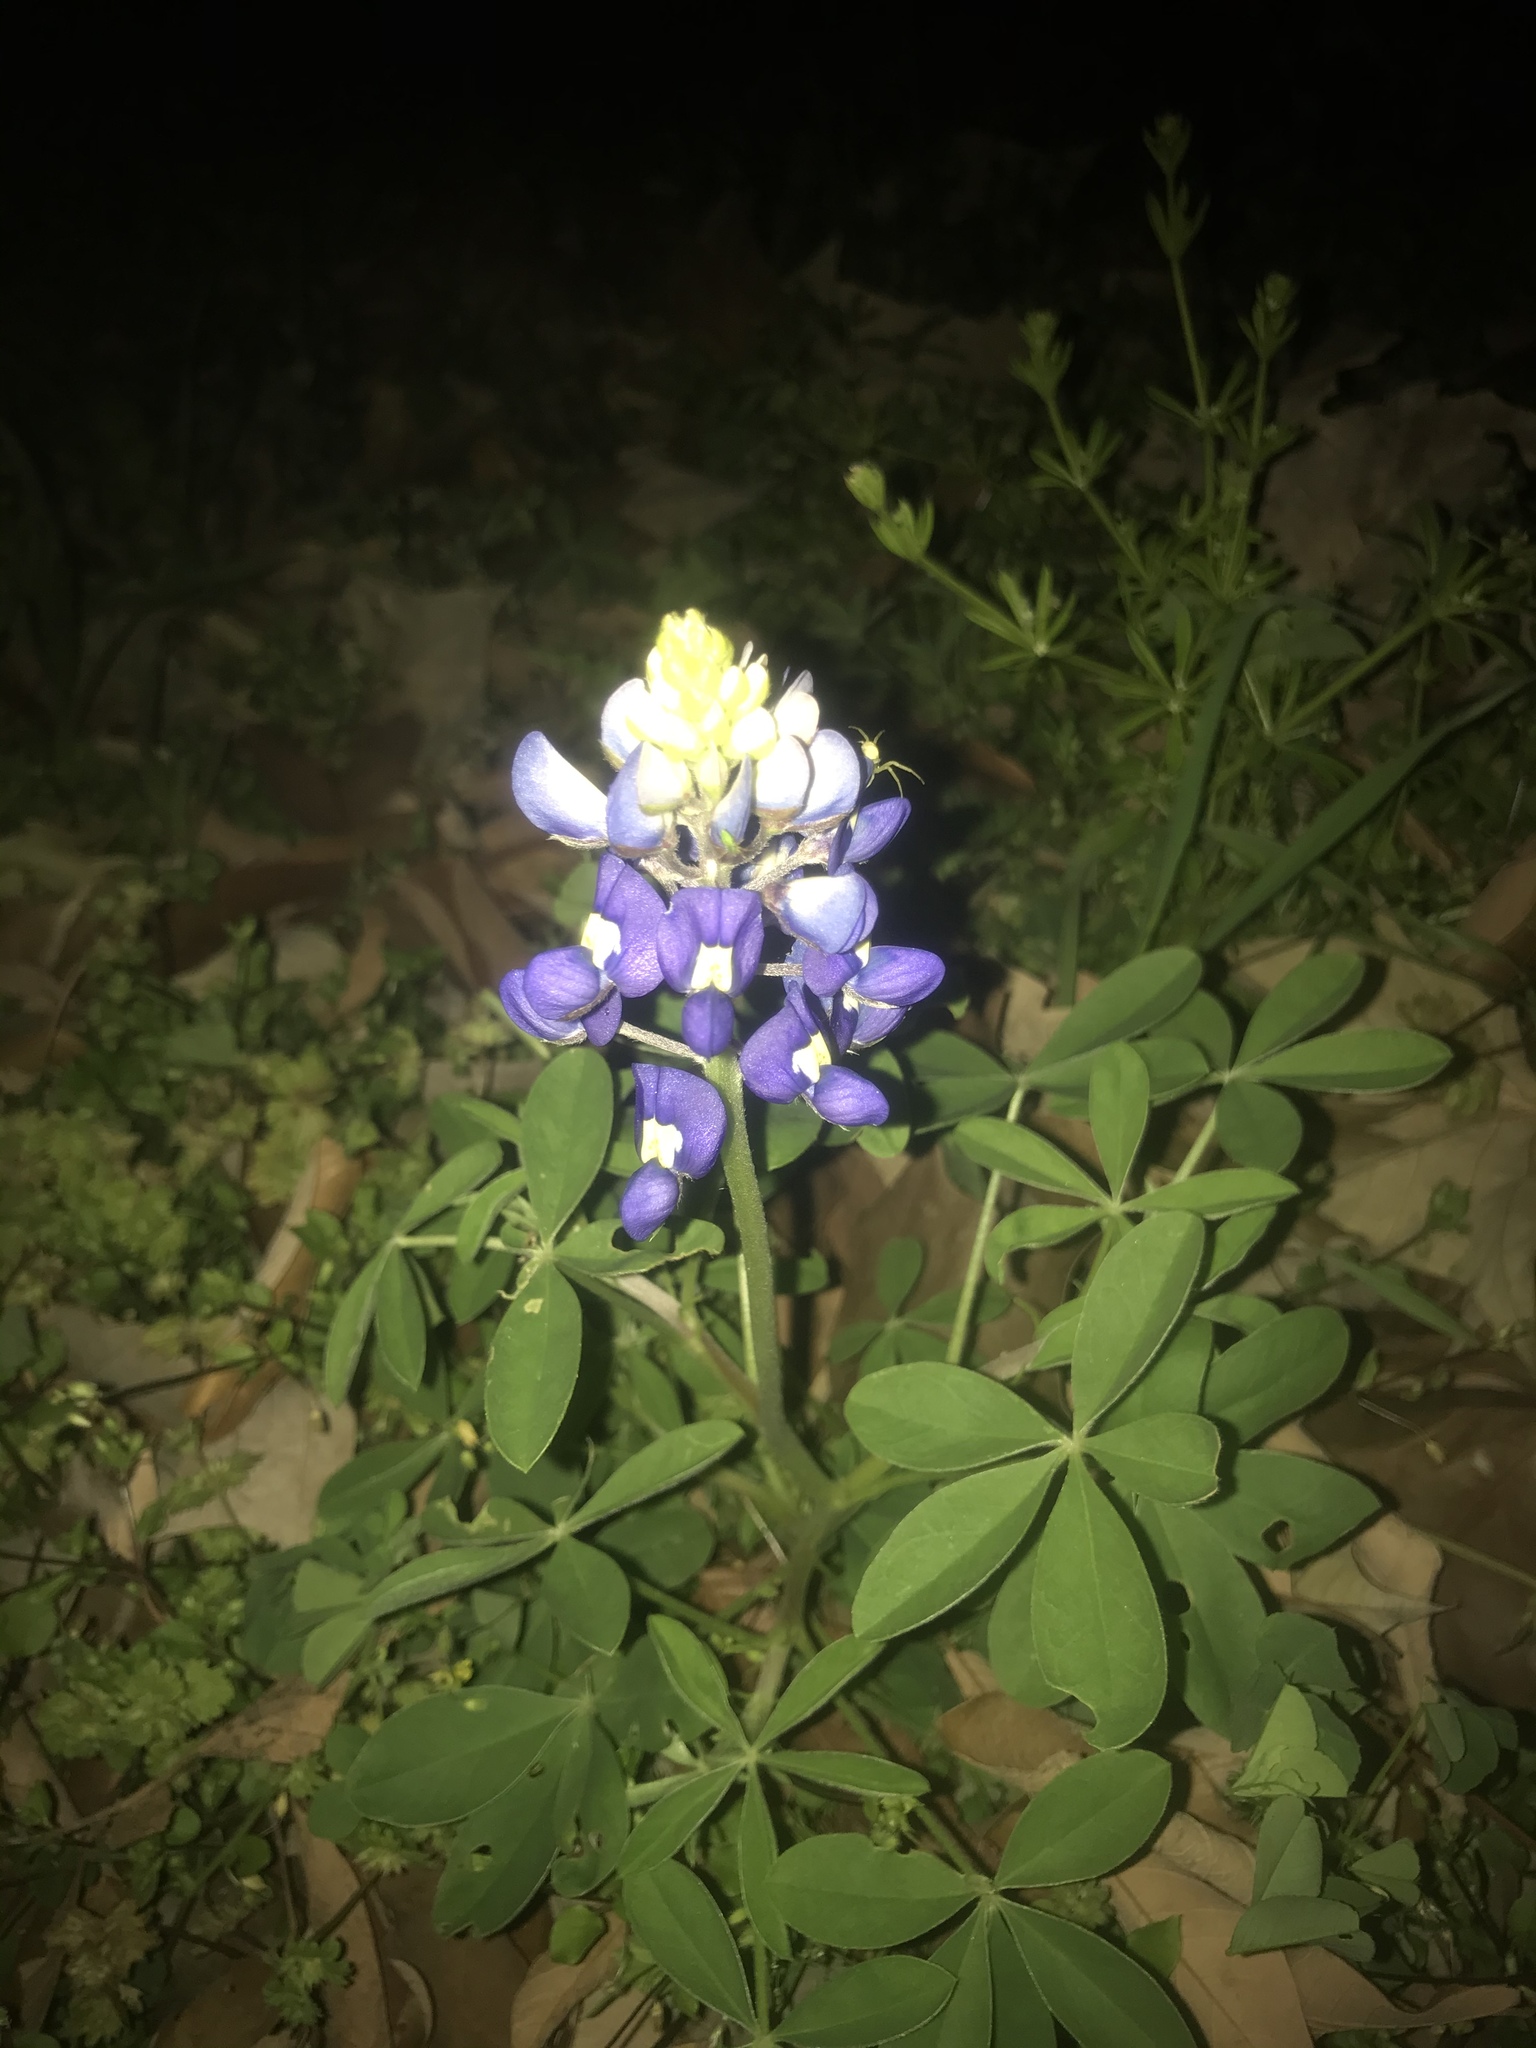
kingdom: Plantae
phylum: Tracheophyta
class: Magnoliopsida
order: Fabales
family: Fabaceae
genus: Lupinus
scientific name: Lupinus texensis
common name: Texas bluebonnet
